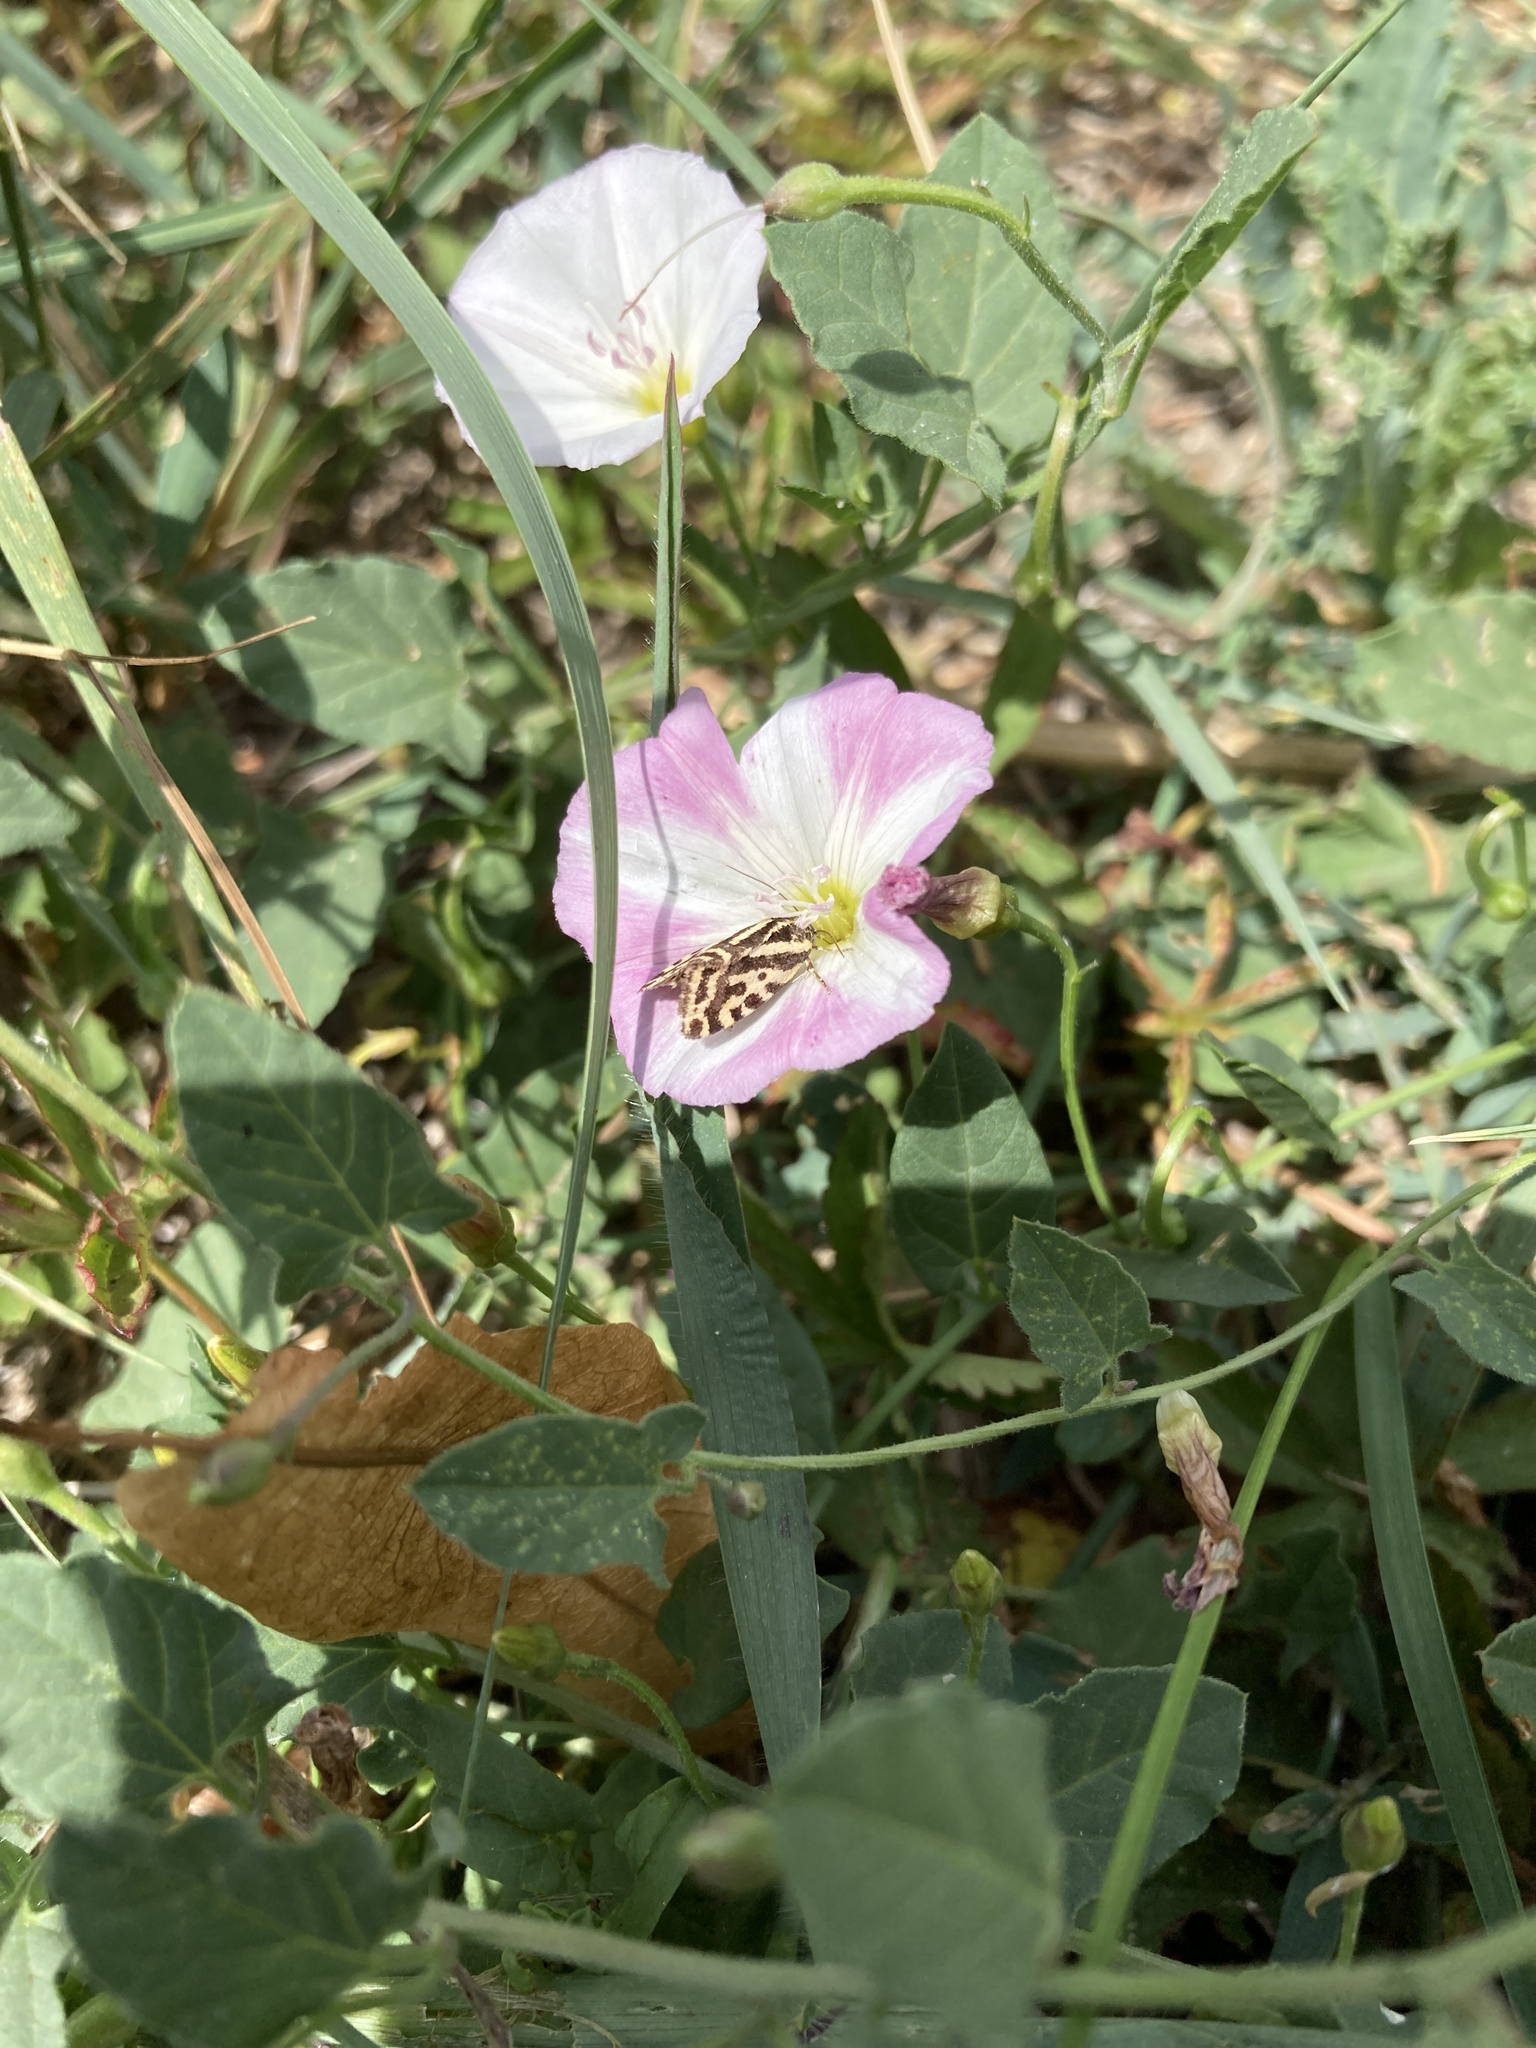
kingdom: Animalia
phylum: Arthropoda
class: Insecta
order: Lepidoptera
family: Noctuidae
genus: Acontia
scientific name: Acontia trabealis
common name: Spotted sulphur
